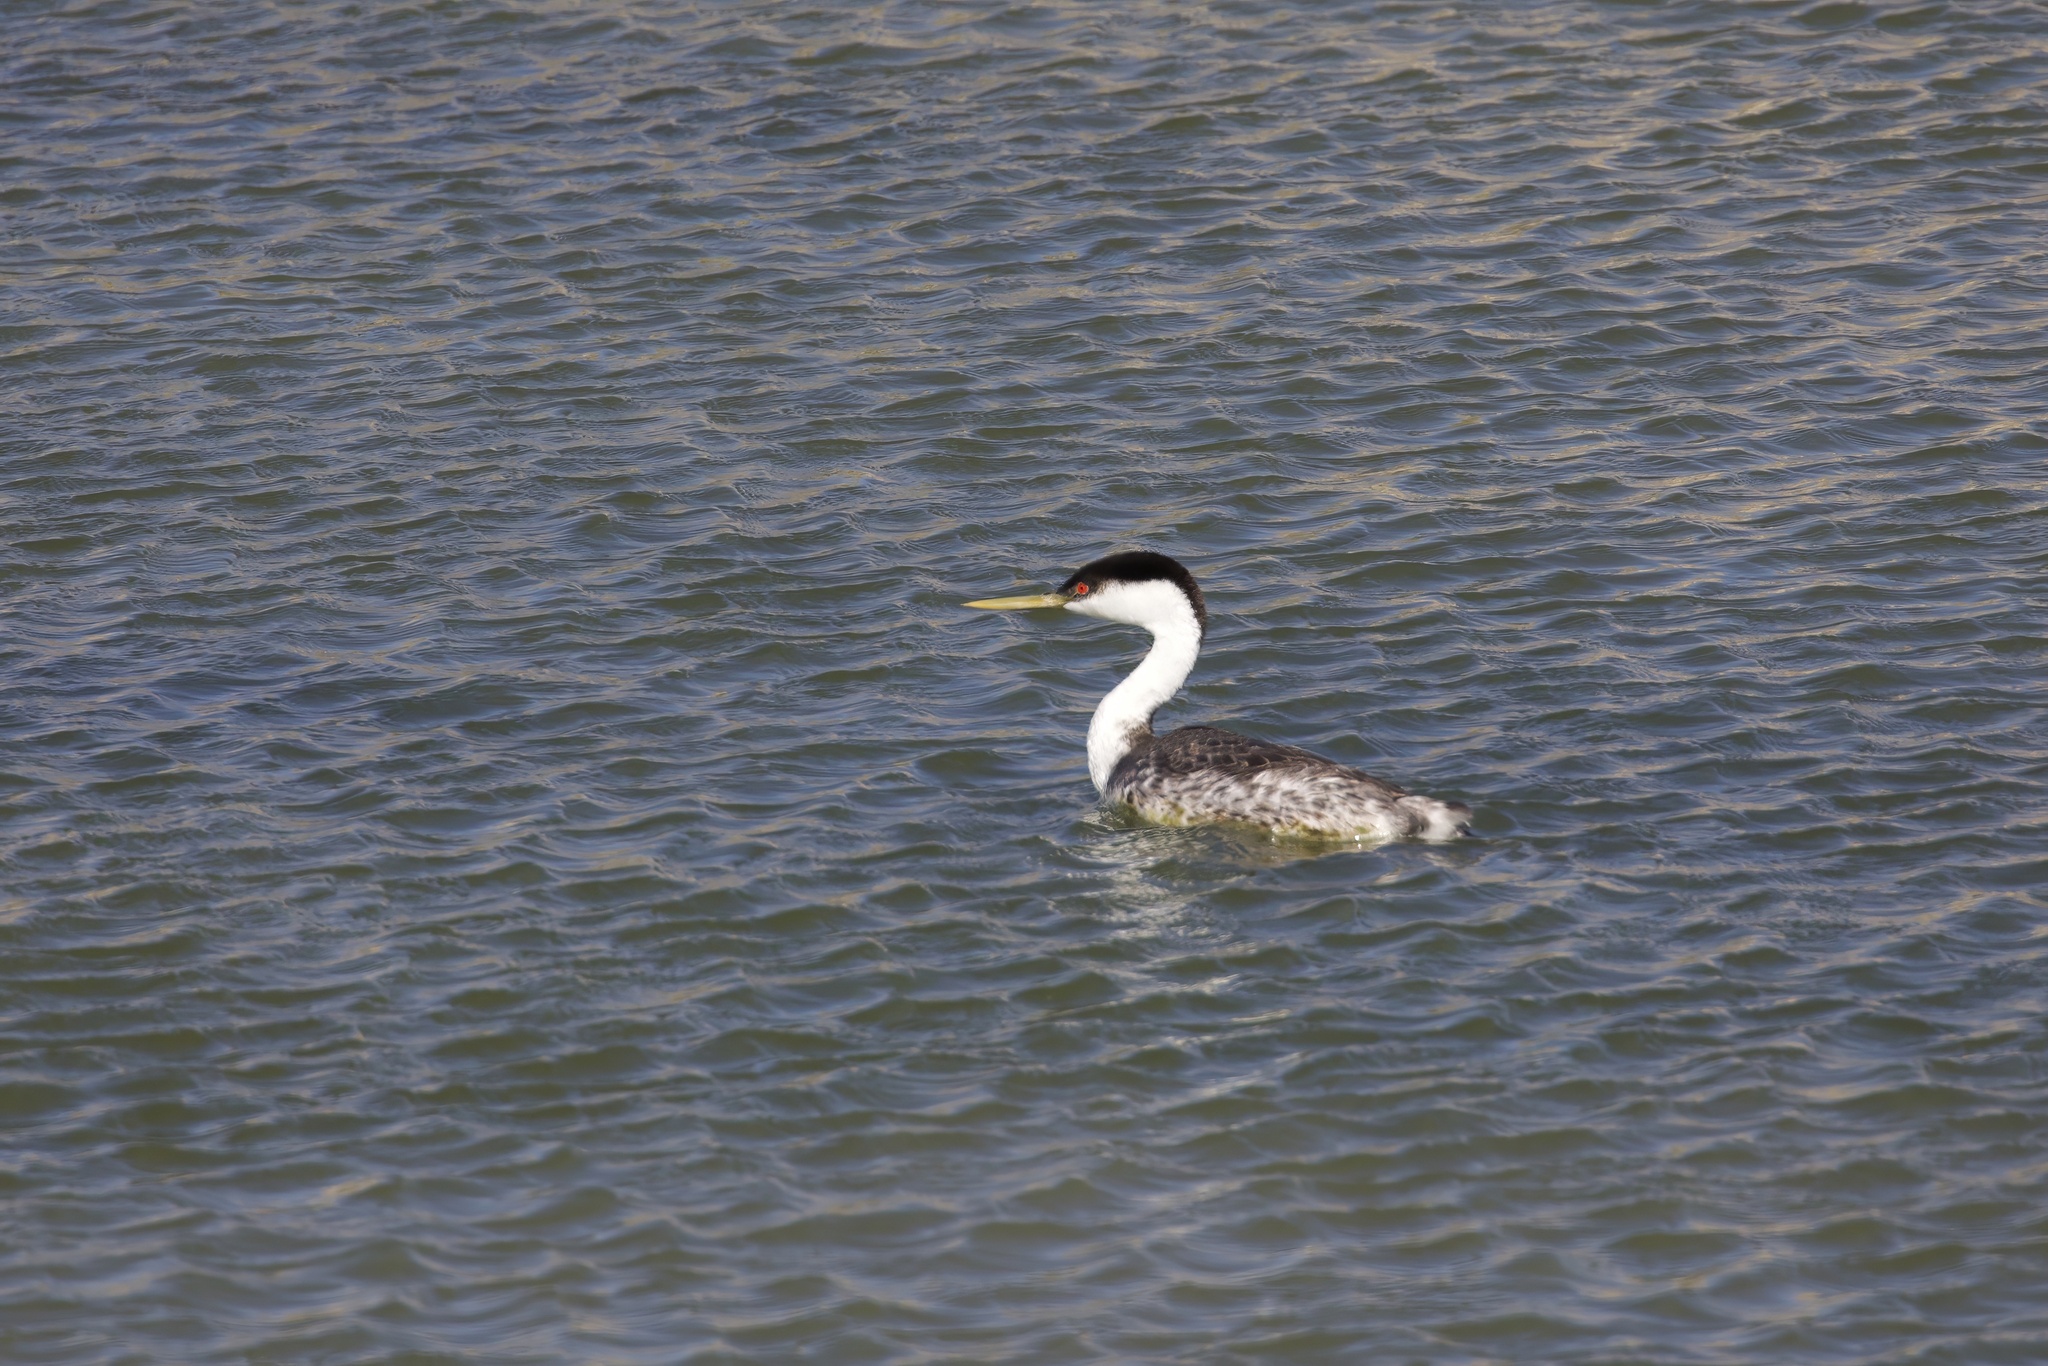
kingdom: Animalia
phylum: Chordata
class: Aves
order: Podicipediformes
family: Podicipedidae
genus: Aechmophorus
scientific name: Aechmophorus occidentalis
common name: Western grebe
